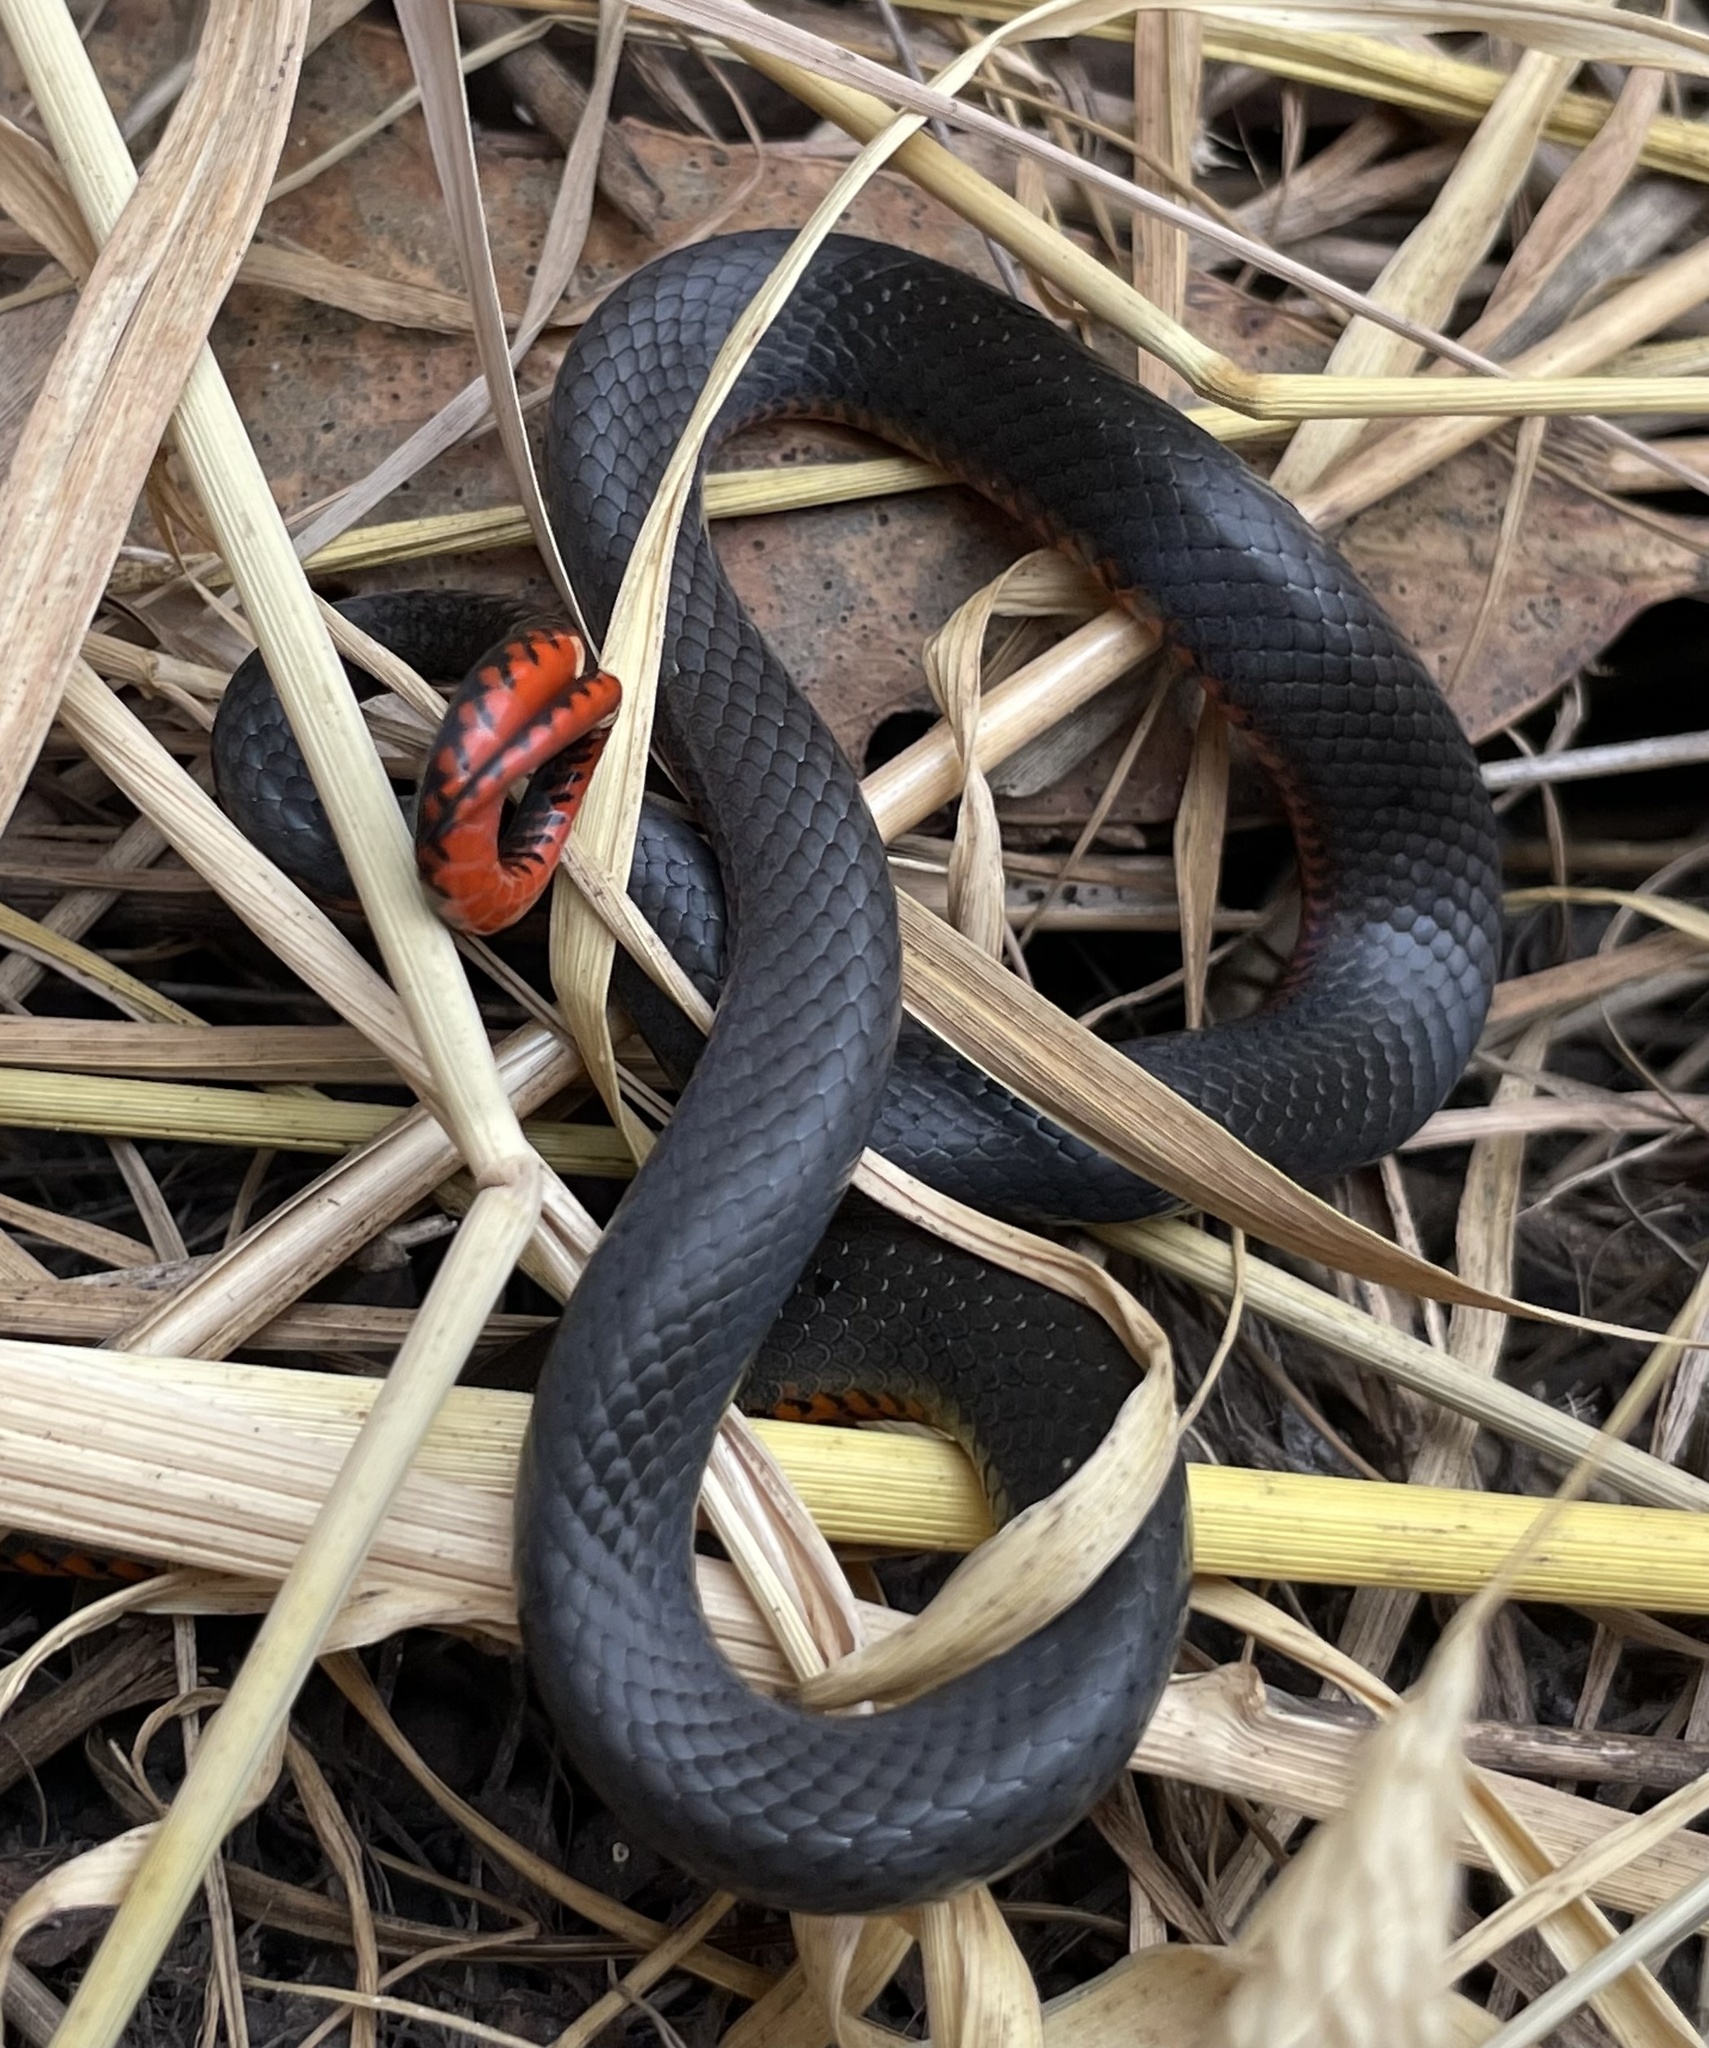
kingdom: Animalia
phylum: Chordata
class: Squamata
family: Colubridae
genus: Diadophis
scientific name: Diadophis punctatus
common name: Ringneck snake
